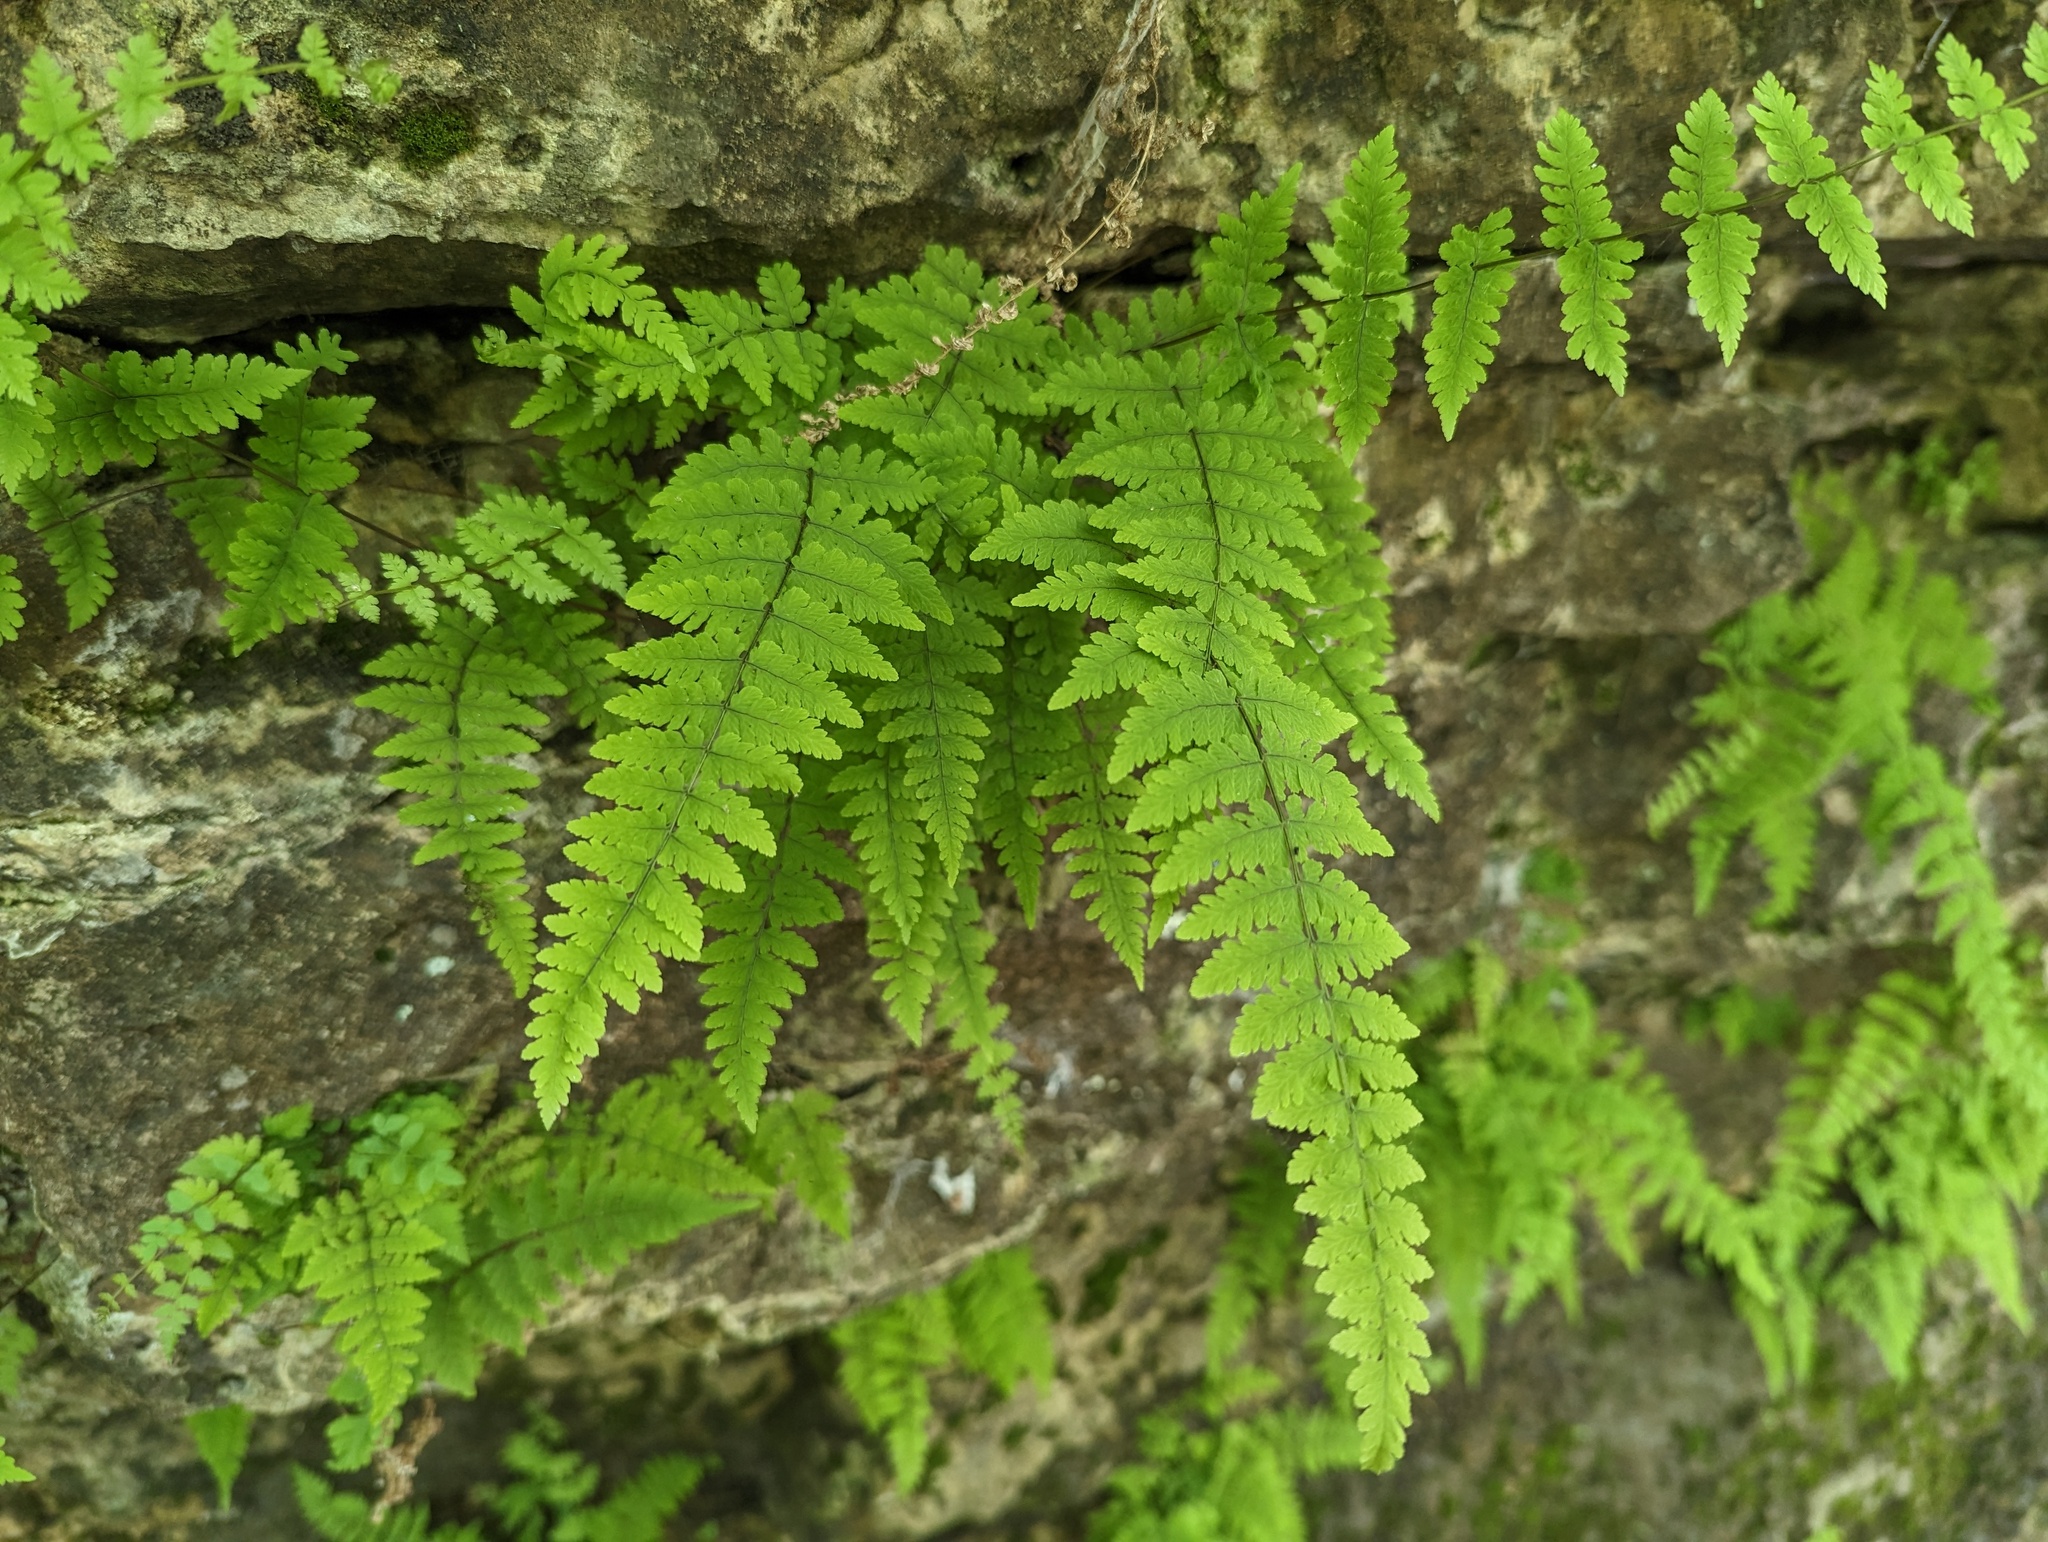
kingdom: Plantae
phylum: Tracheophyta
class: Polypodiopsida
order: Polypodiales
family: Cystopteridaceae
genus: Cystopteris
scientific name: Cystopteris bulbifera
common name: Bulblet bladder fern
